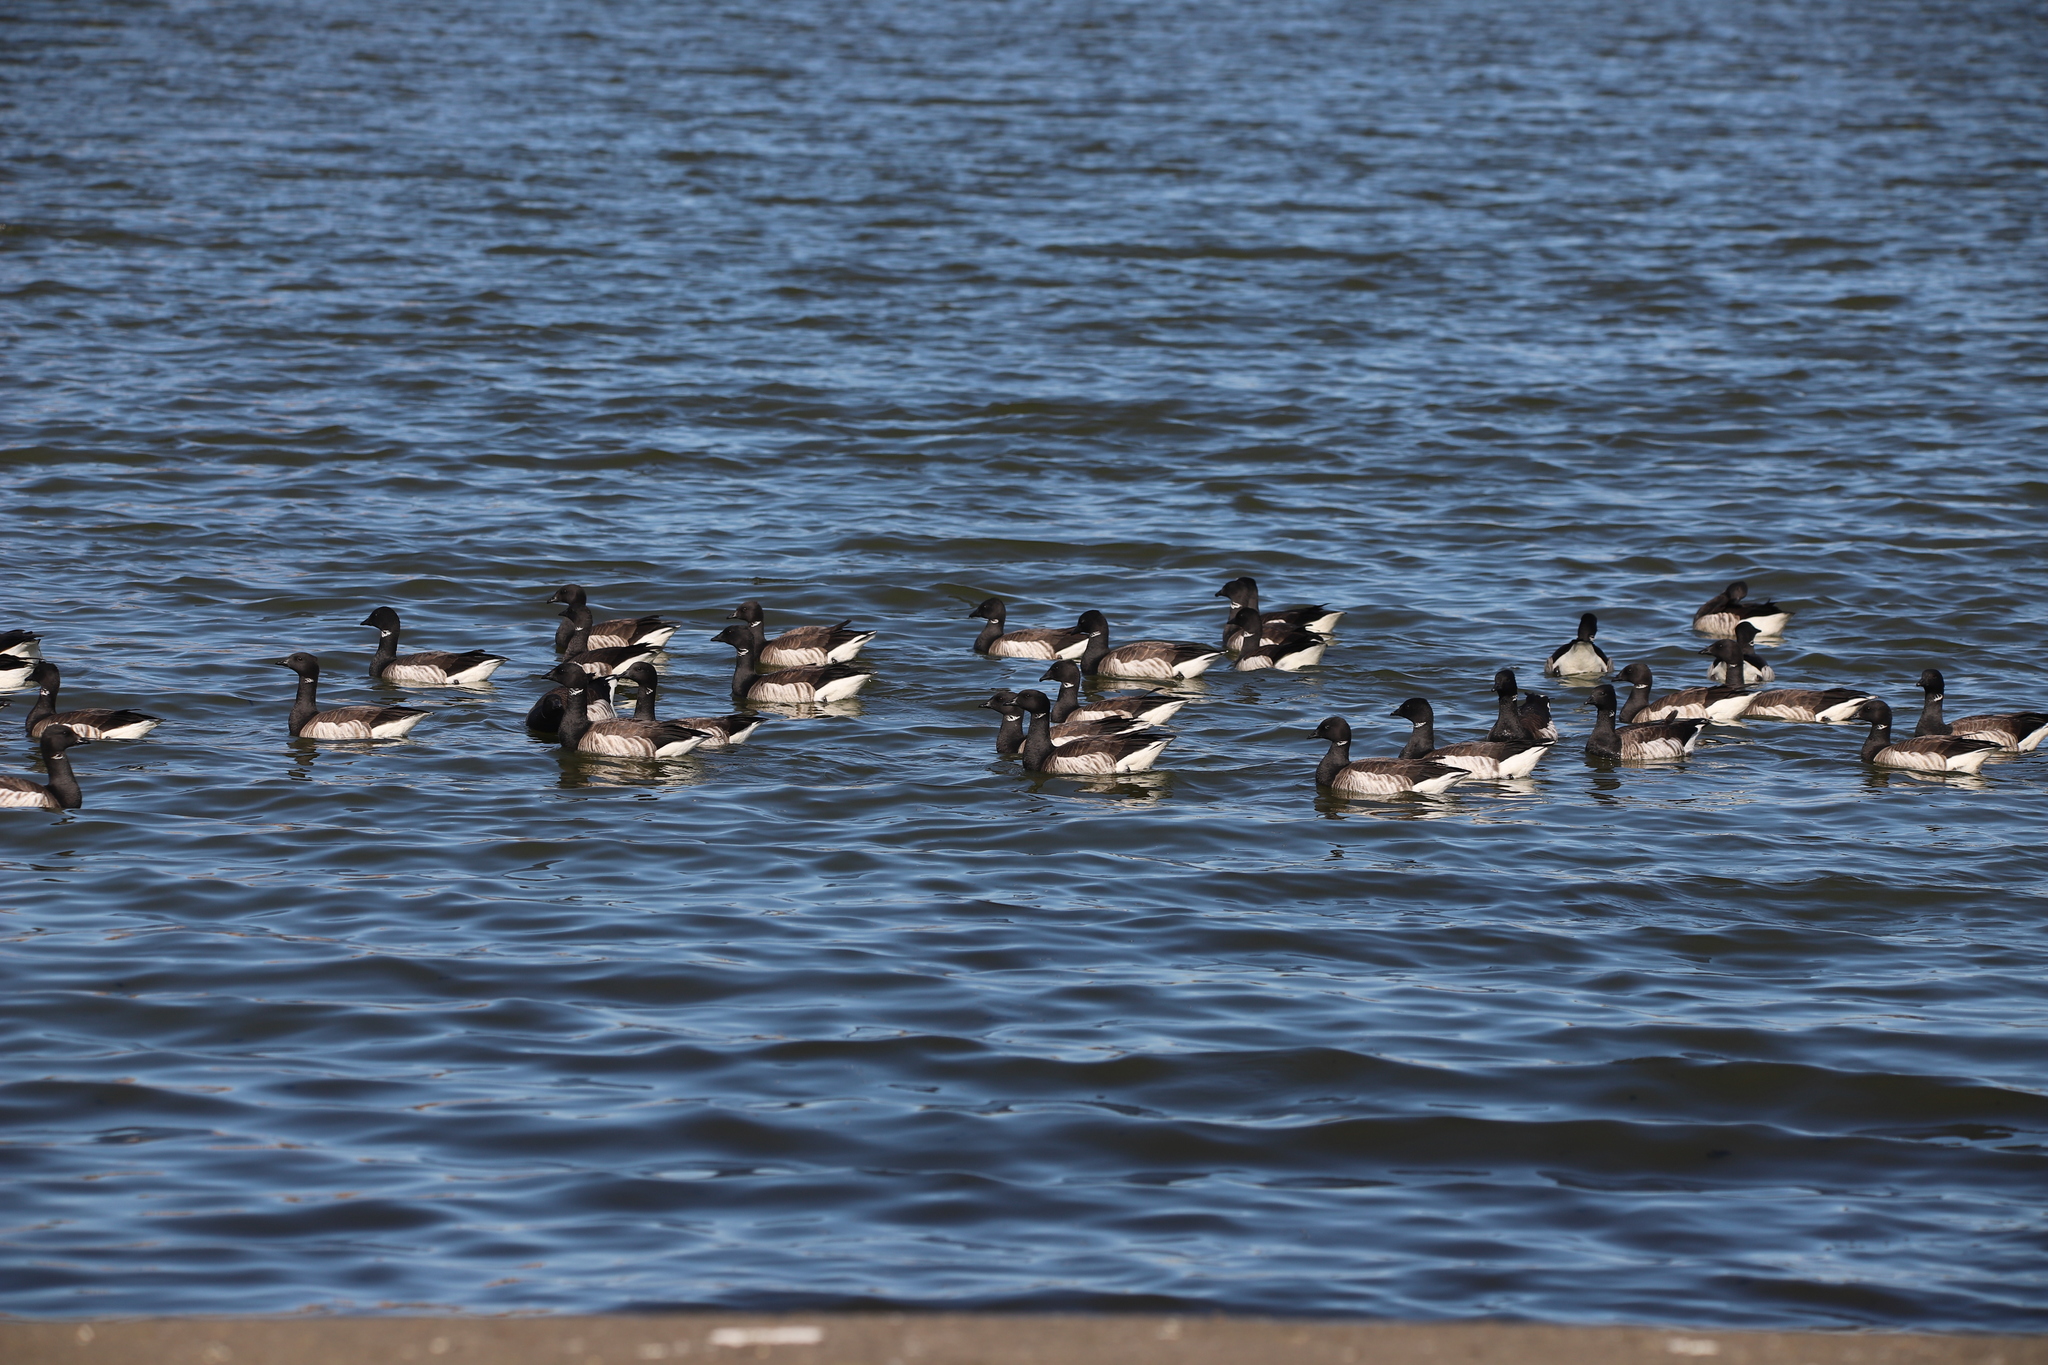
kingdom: Animalia
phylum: Chordata
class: Aves
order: Anseriformes
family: Anatidae
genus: Branta
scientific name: Branta bernicla
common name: Brant goose
